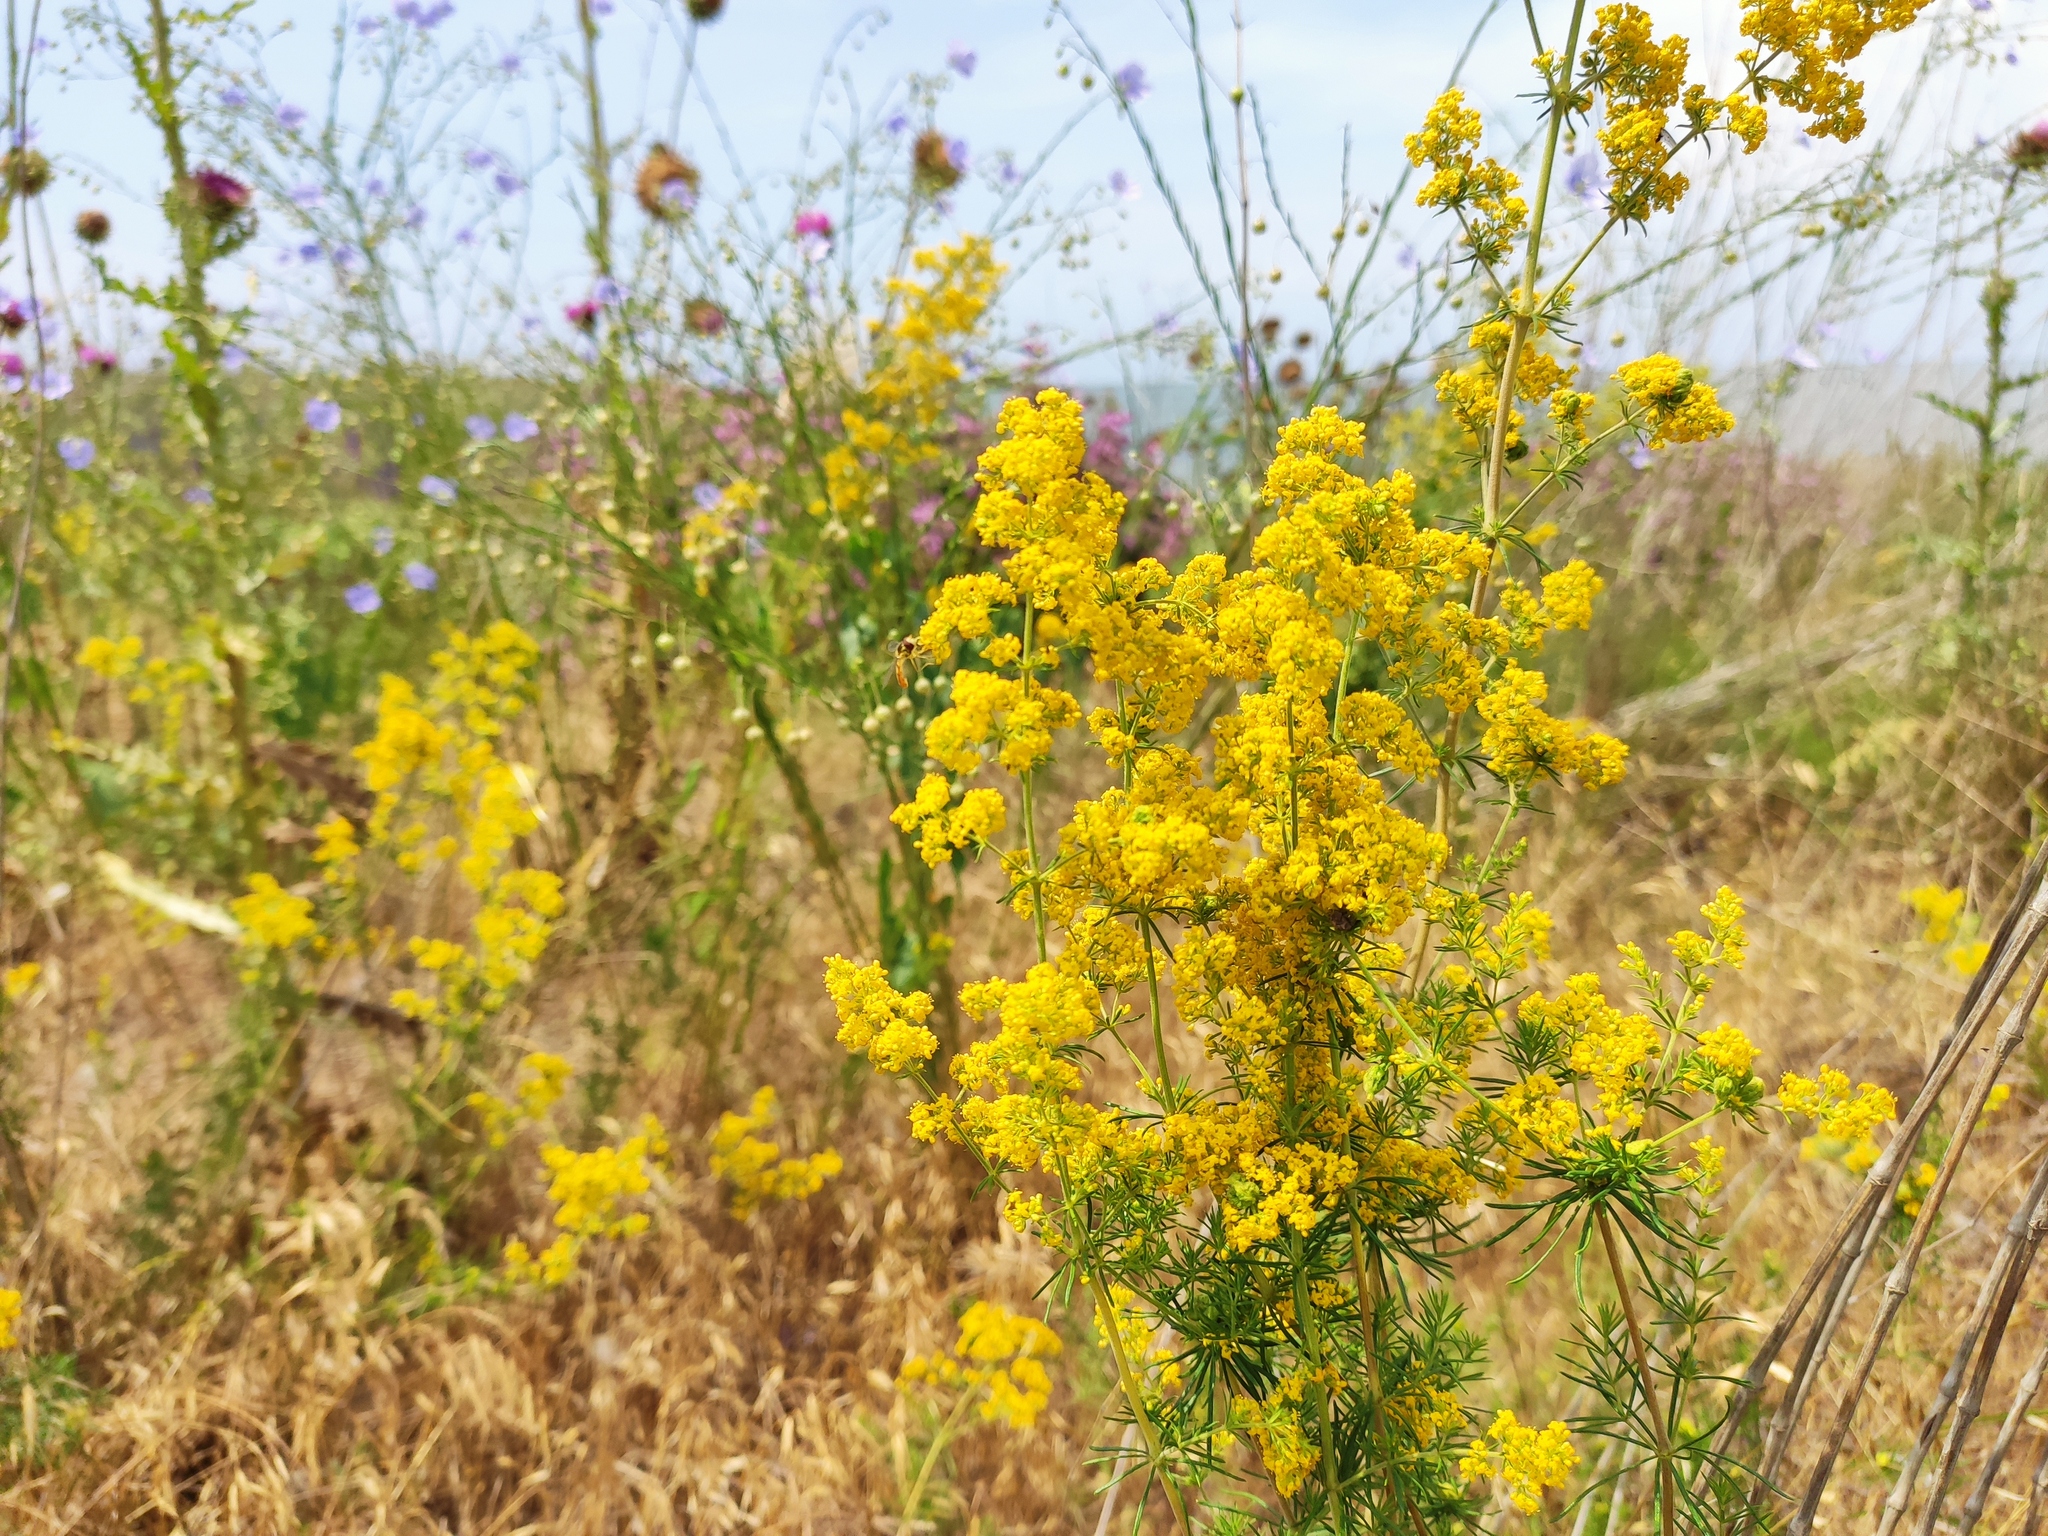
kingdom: Plantae
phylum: Tracheophyta
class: Magnoliopsida
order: Gentianales
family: Rubiaceae
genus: Galium
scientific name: Galium verum
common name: Lady's bedstraw
